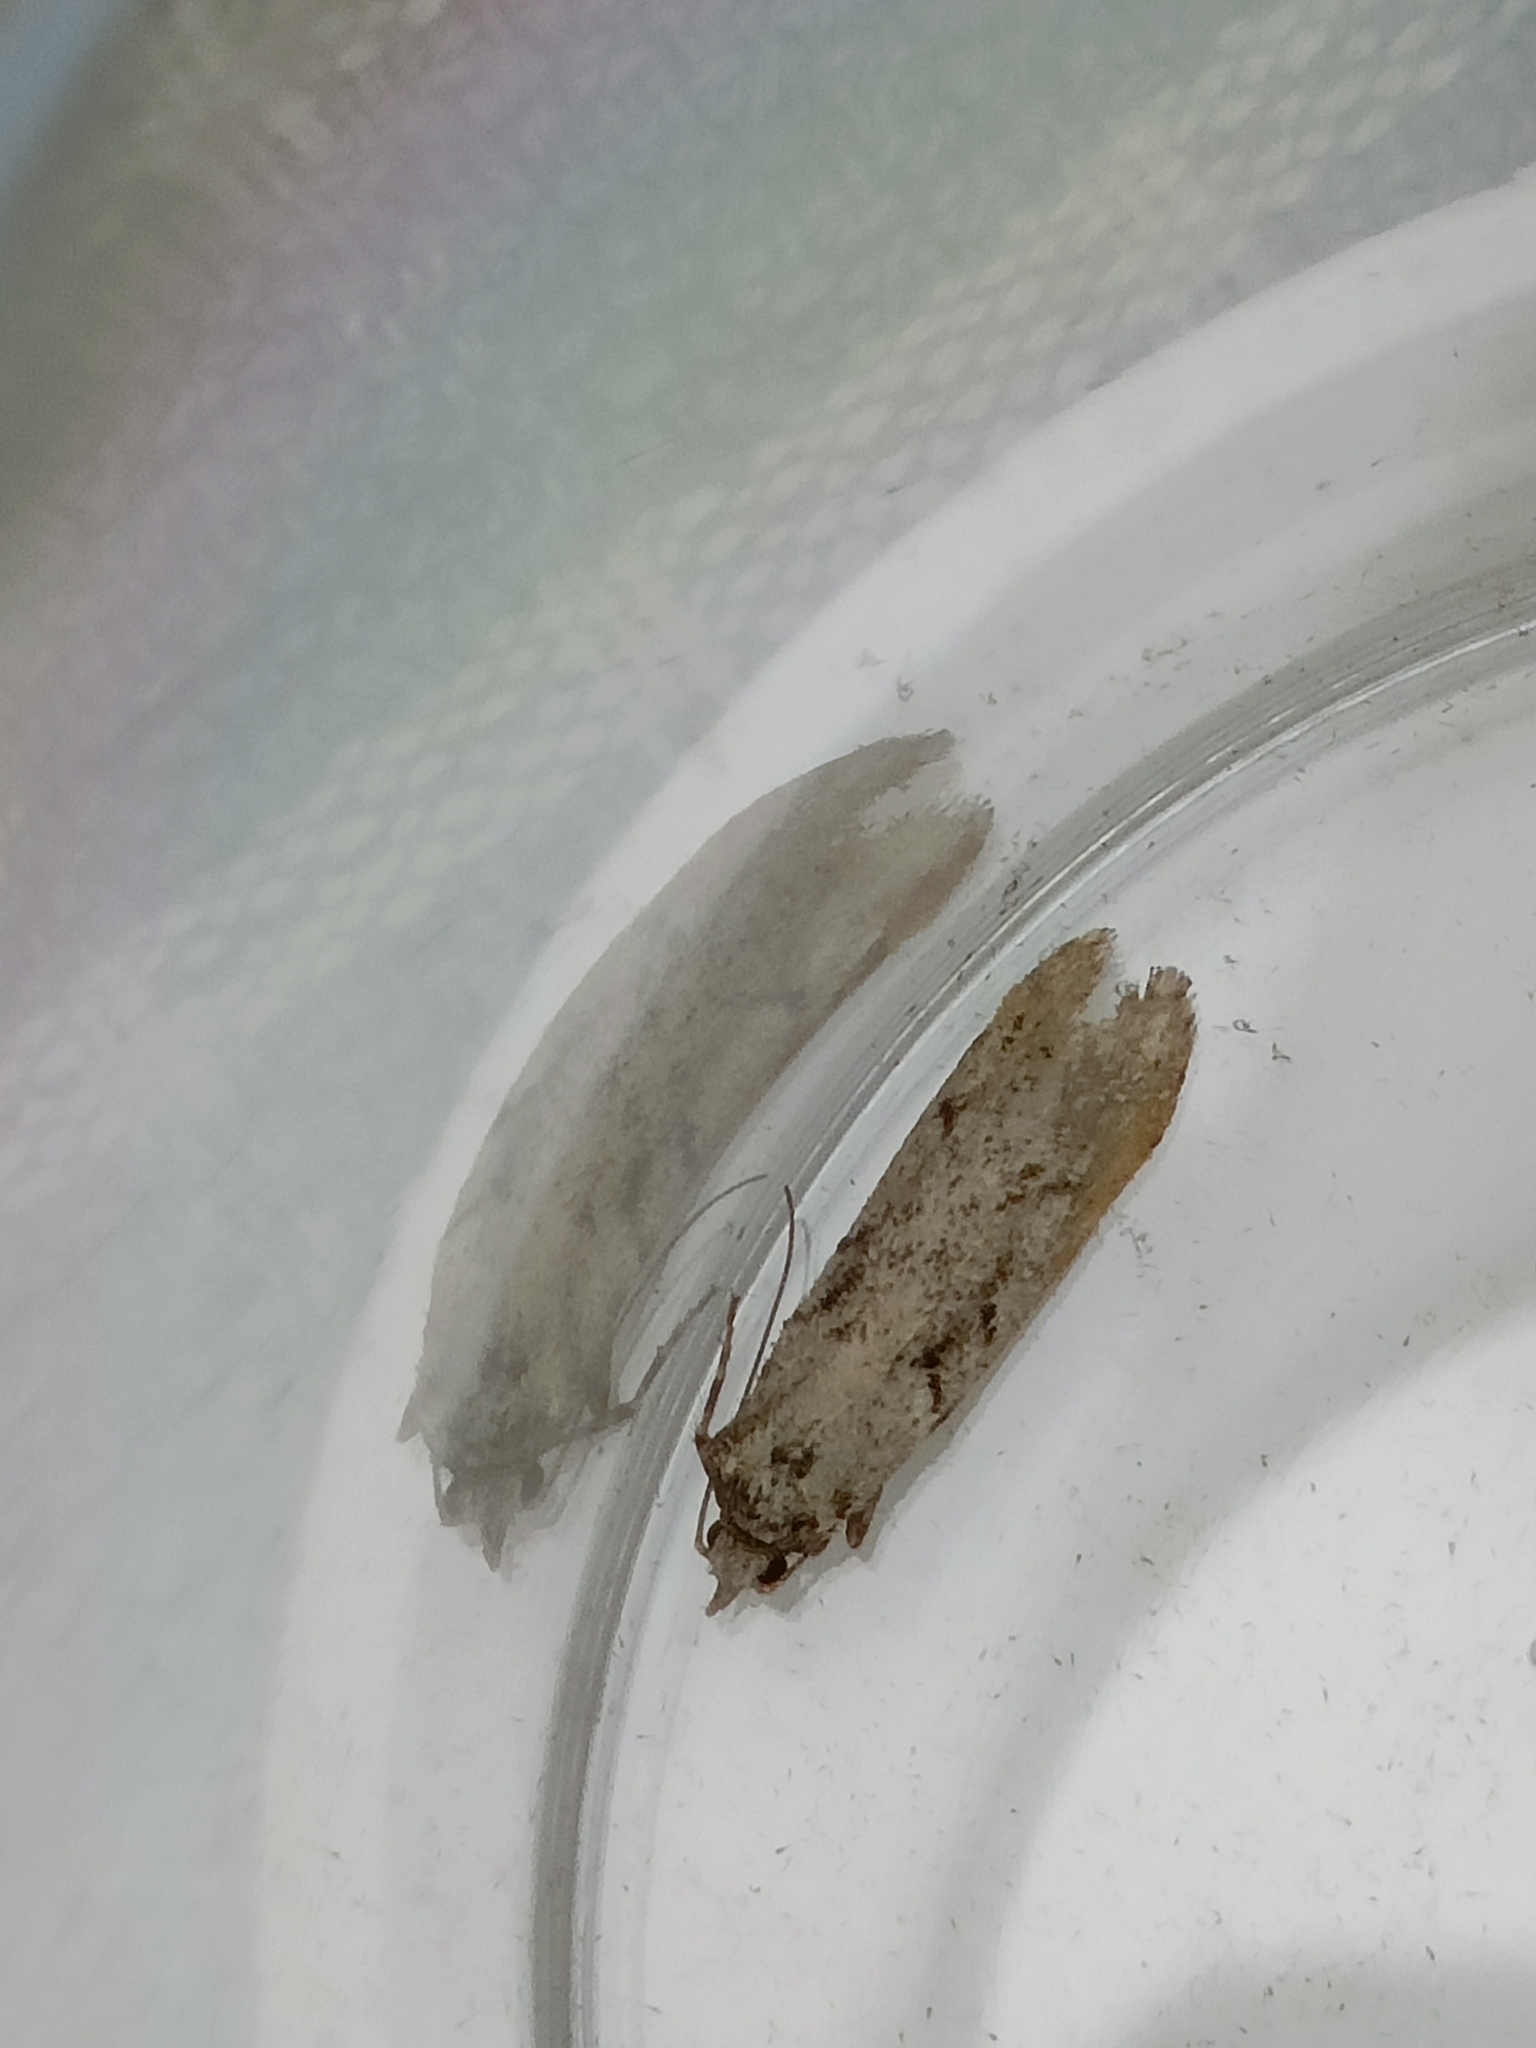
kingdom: Animalia
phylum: Arthropoda
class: Insecta
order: Lepidoptera
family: Lypusidae
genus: Diurnea
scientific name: Diurnea fagella
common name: March tubic
